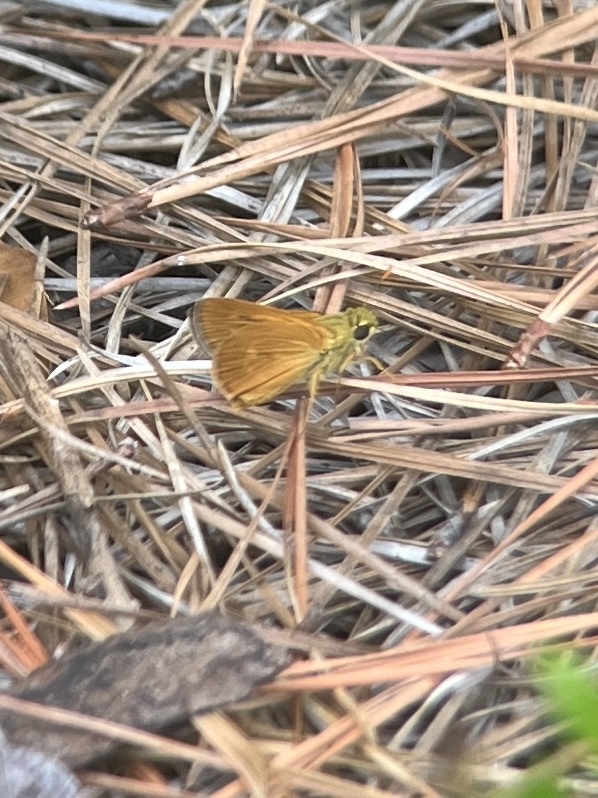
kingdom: Animalia
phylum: Arthropoda
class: Insecta
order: Lepidoptera
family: Hesperiidae
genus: Polites
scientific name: Polites otho
